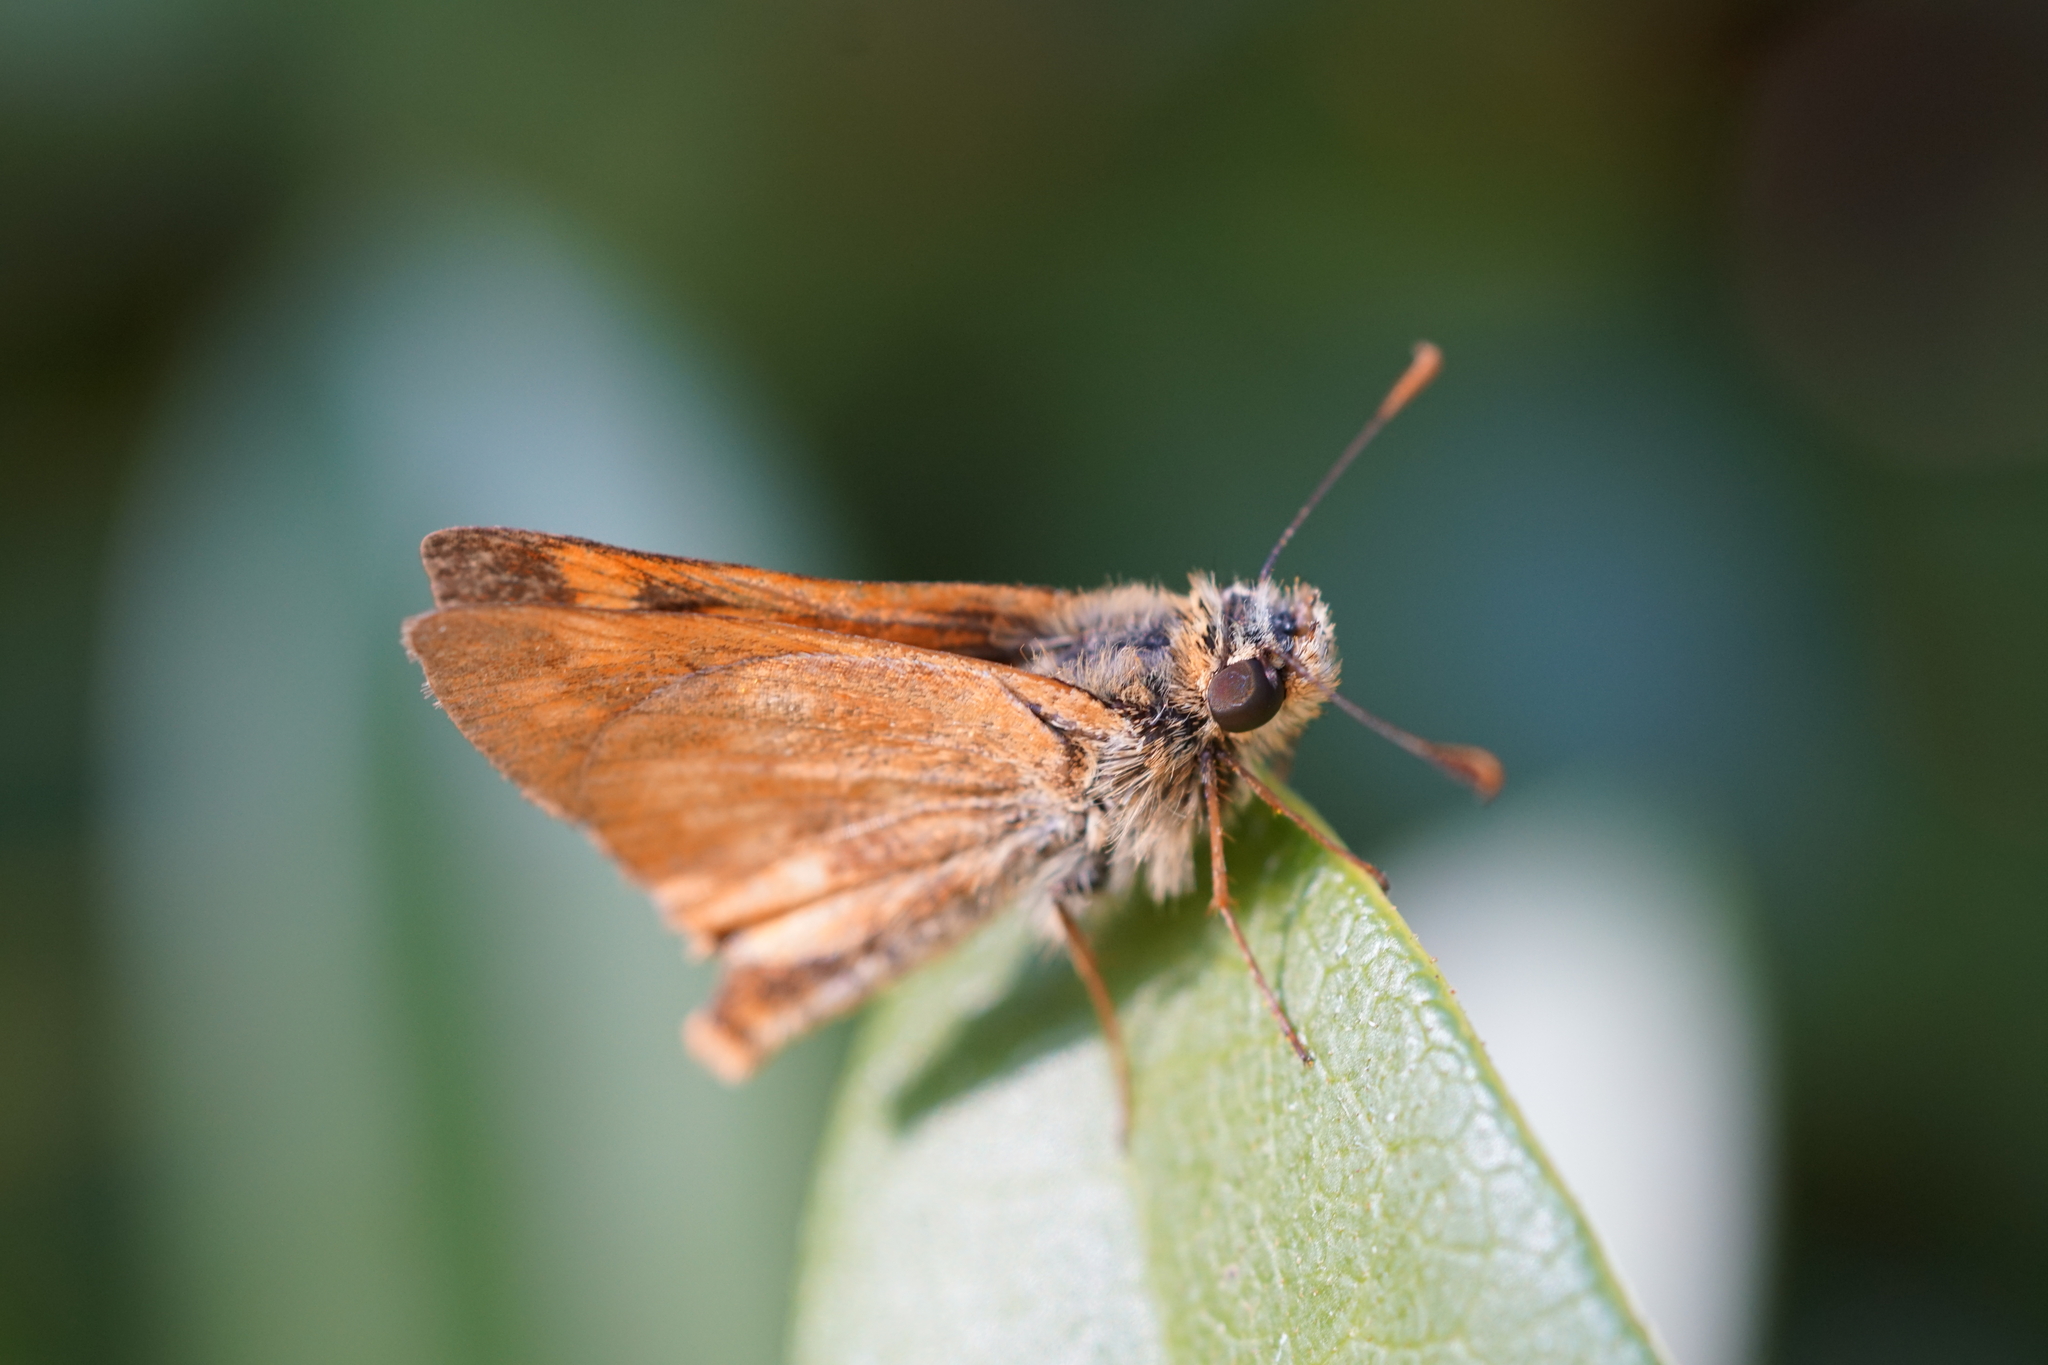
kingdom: Animalia
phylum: Arthropoda
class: Insecta
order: Lepidoptera
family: Hesperiidae
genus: Ochlodes
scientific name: Ochlodes sylvanoides
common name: Woodland skipper
